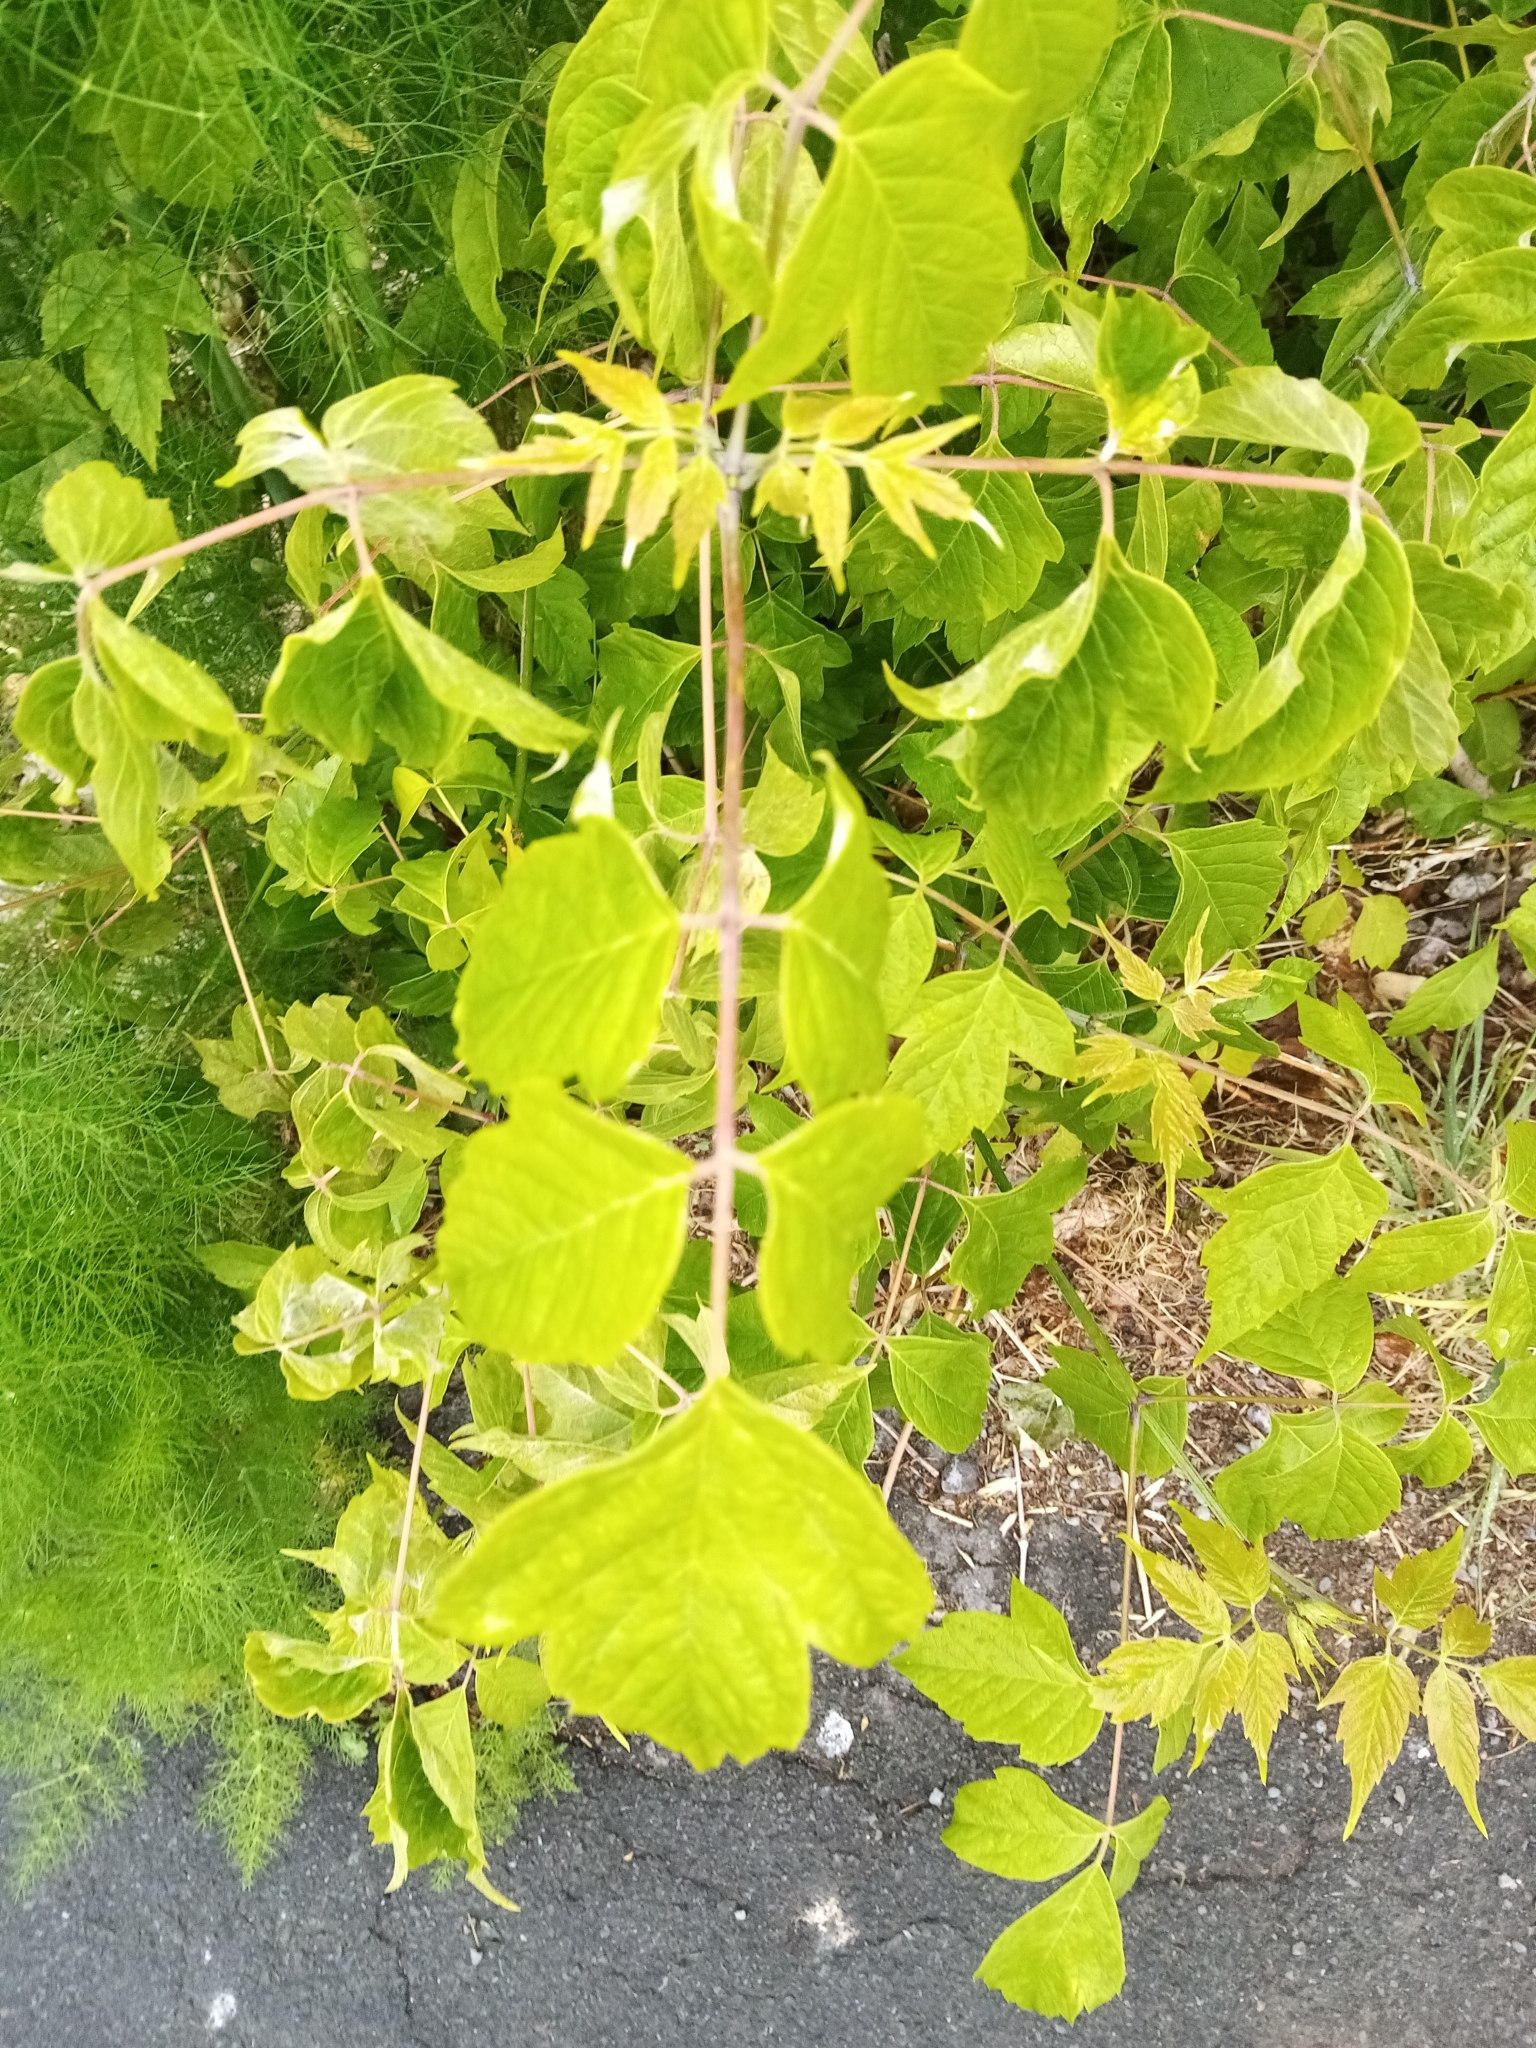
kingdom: Plantae
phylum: Tracheophyta
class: Magnoliopsida
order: Sapindales
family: Sapindaceae
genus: Acer
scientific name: Acer negundo
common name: Ashleaf maple
